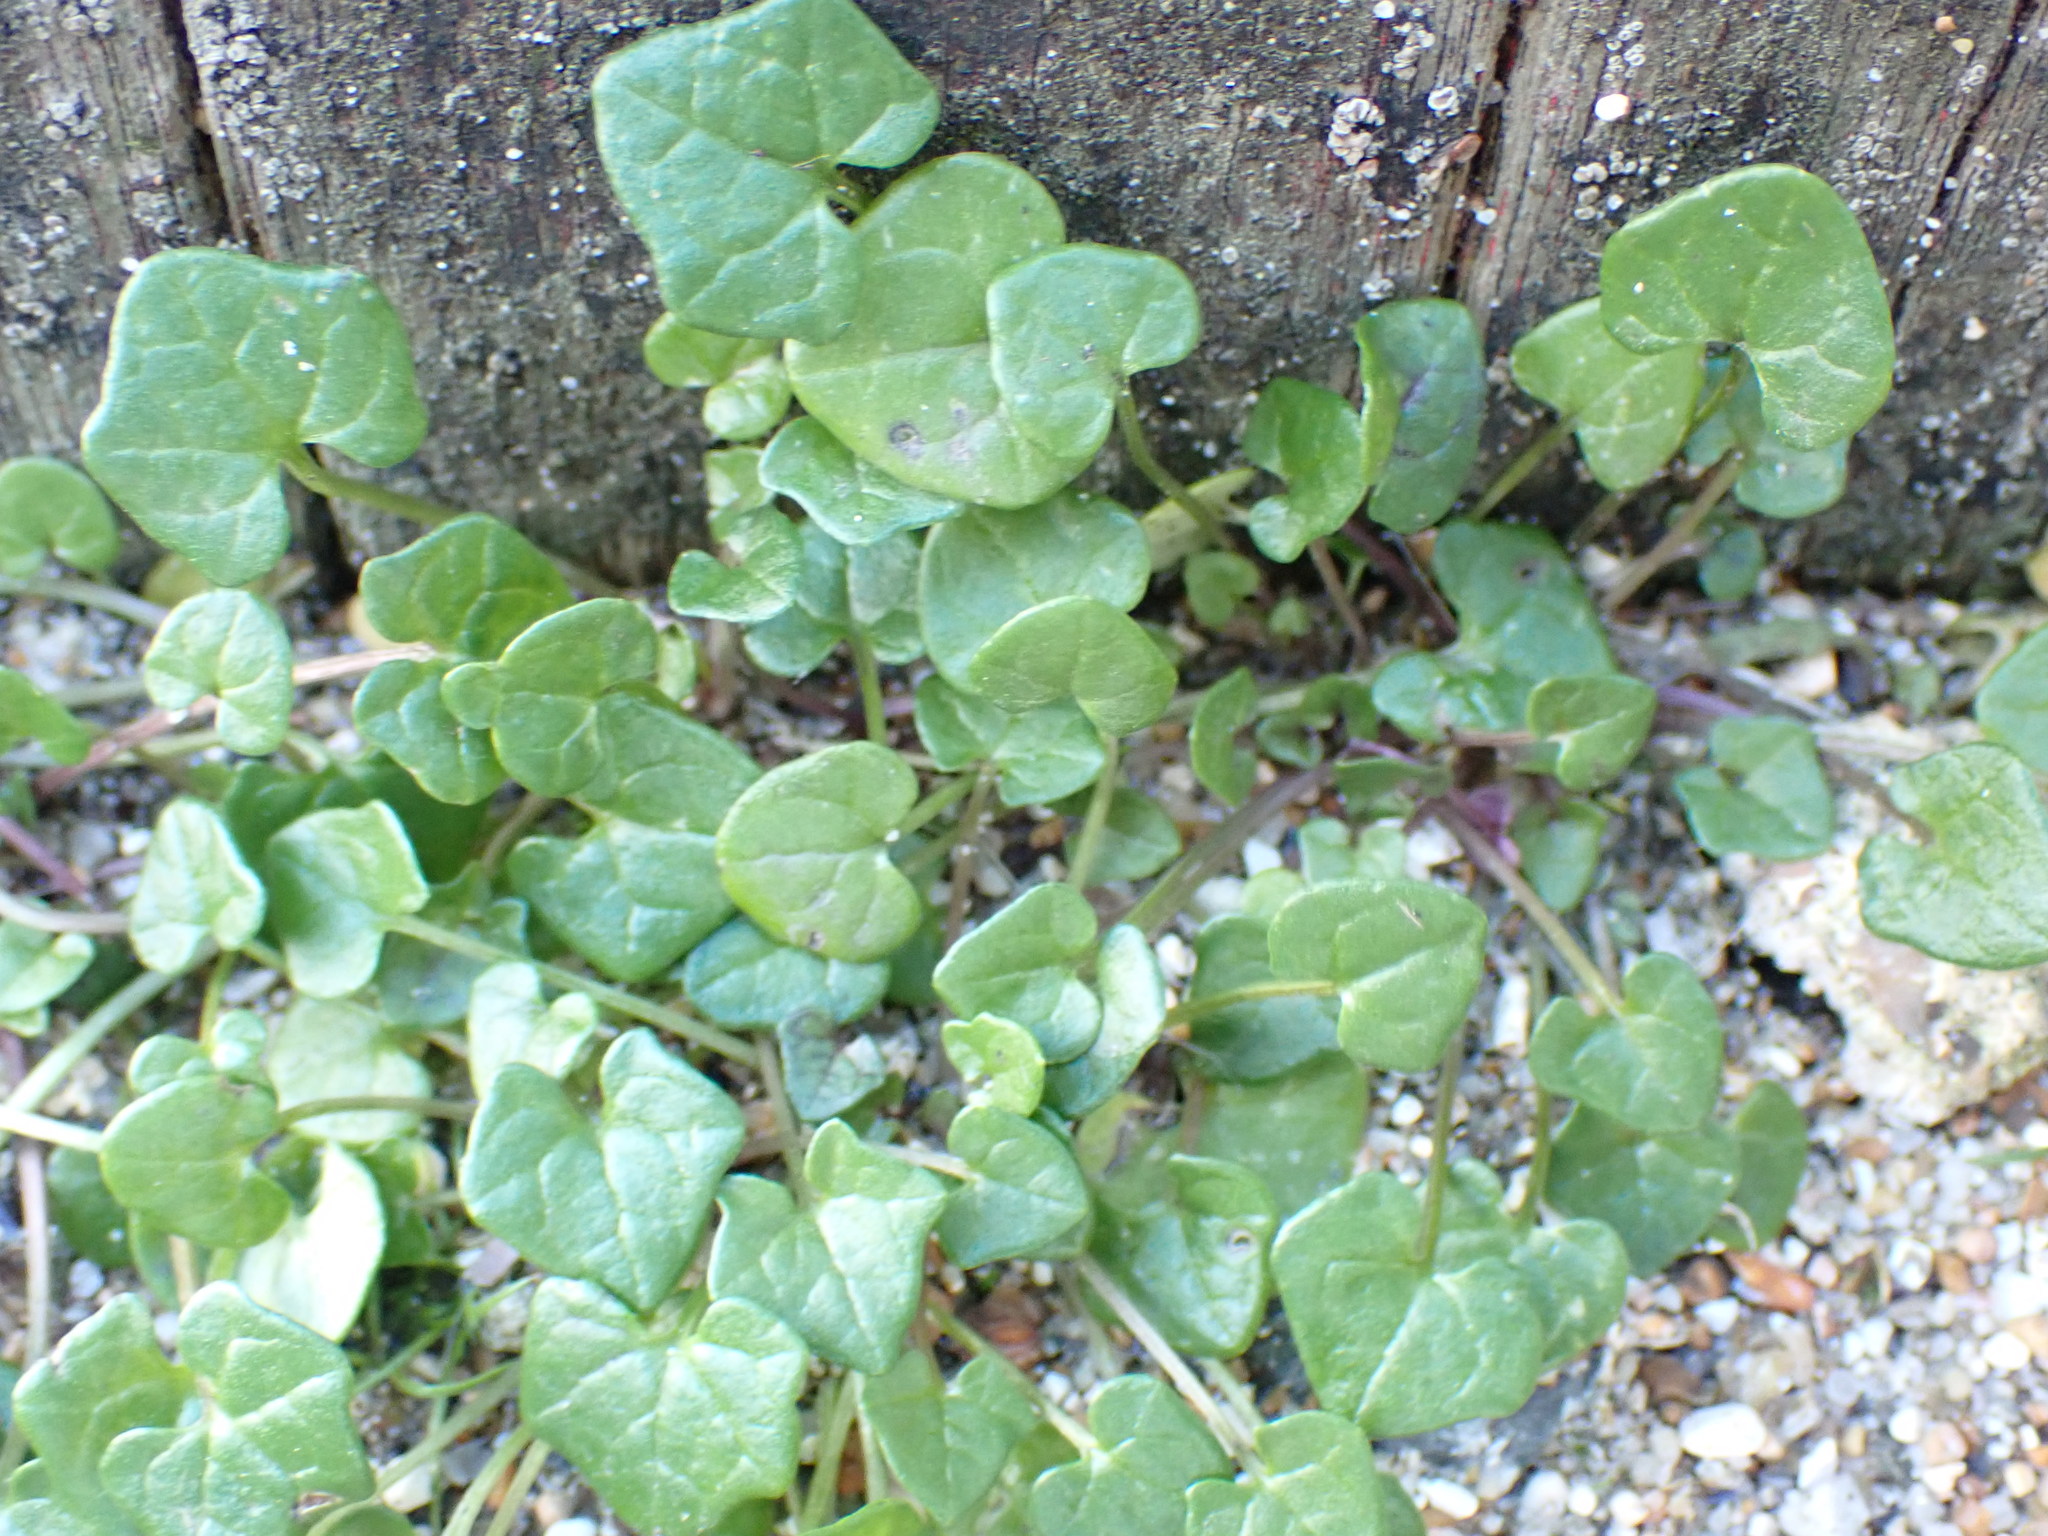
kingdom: Plantae
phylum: Tracheophyta
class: Magnoliopsida
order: Brassicales
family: Brassicaceae
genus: Cochlearia
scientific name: Cochlearia danica
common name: Early scurvygrass
